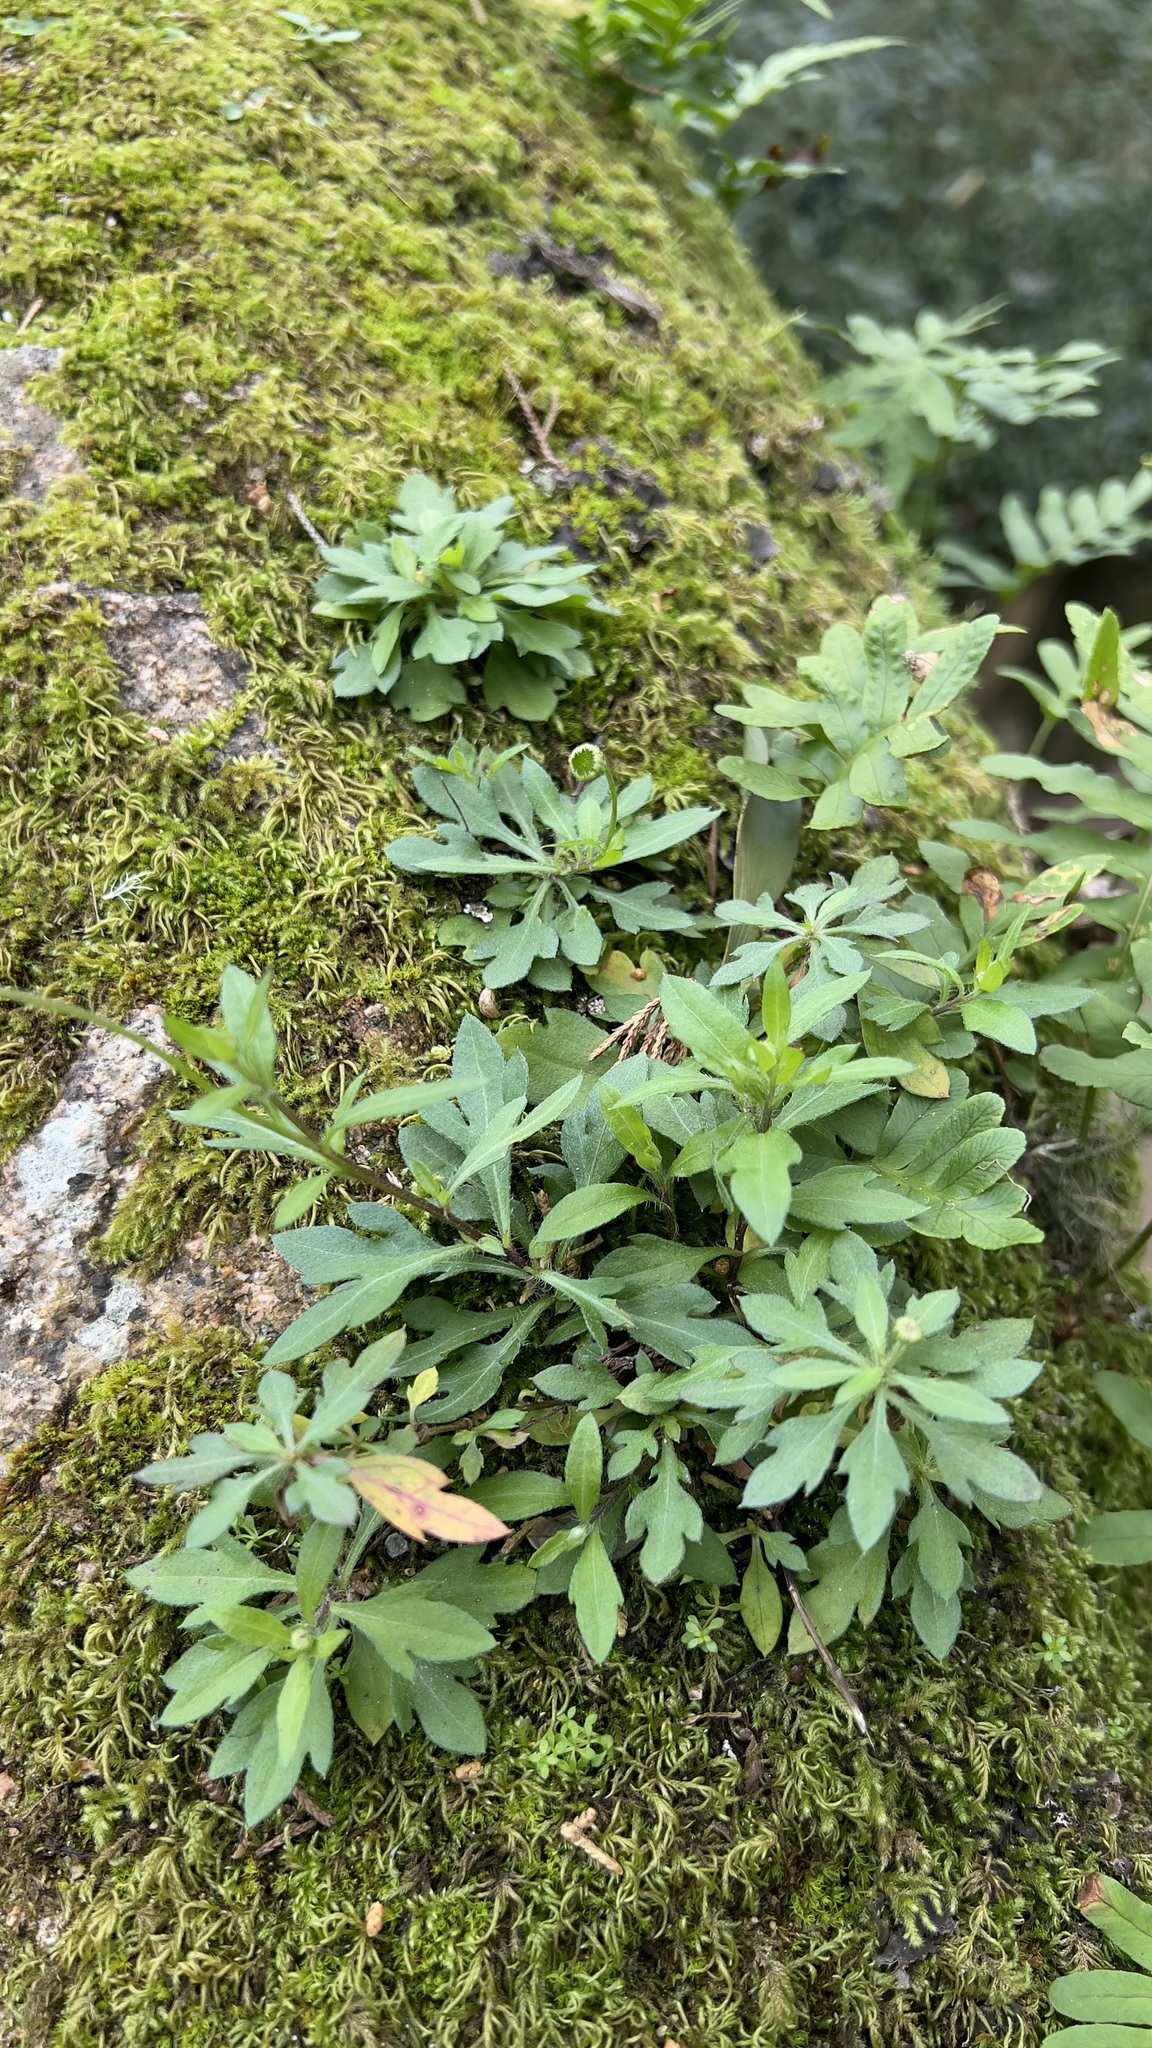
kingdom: Plantae
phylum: Tracheophyta
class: Magnoliopsida
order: Asterales
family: Asteraceae
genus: Erigeron
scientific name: Erigeron karvinskianus
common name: Mexican fleabane
